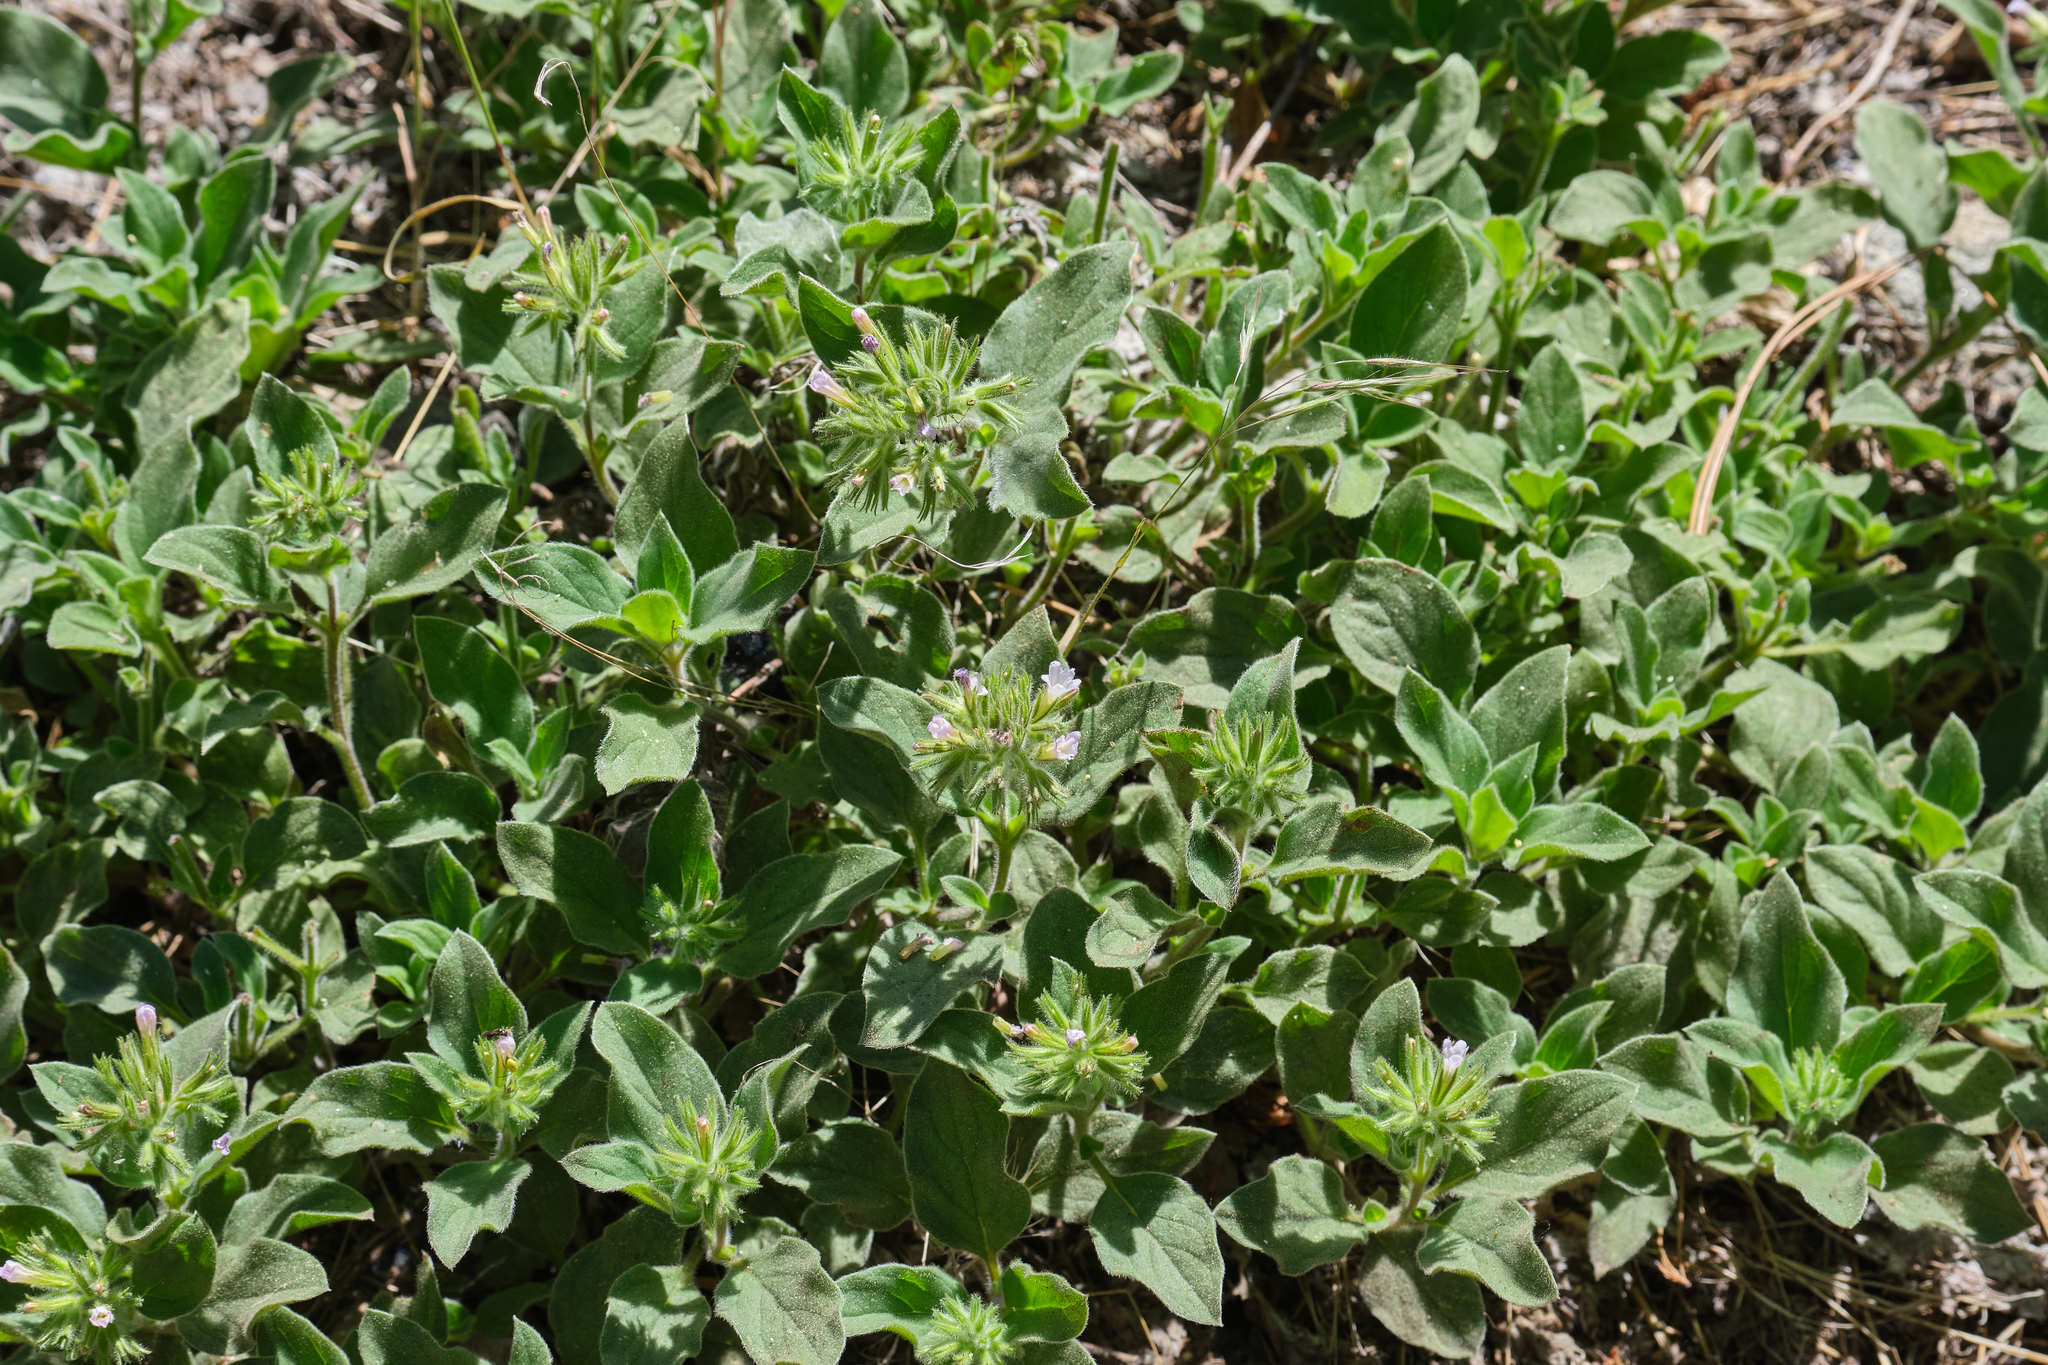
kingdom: Plantae
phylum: Tracheophyta
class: Magnoliopsida
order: Boraginales
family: Hydrophyllaceae
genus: Draperia
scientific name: Draperia systyla
